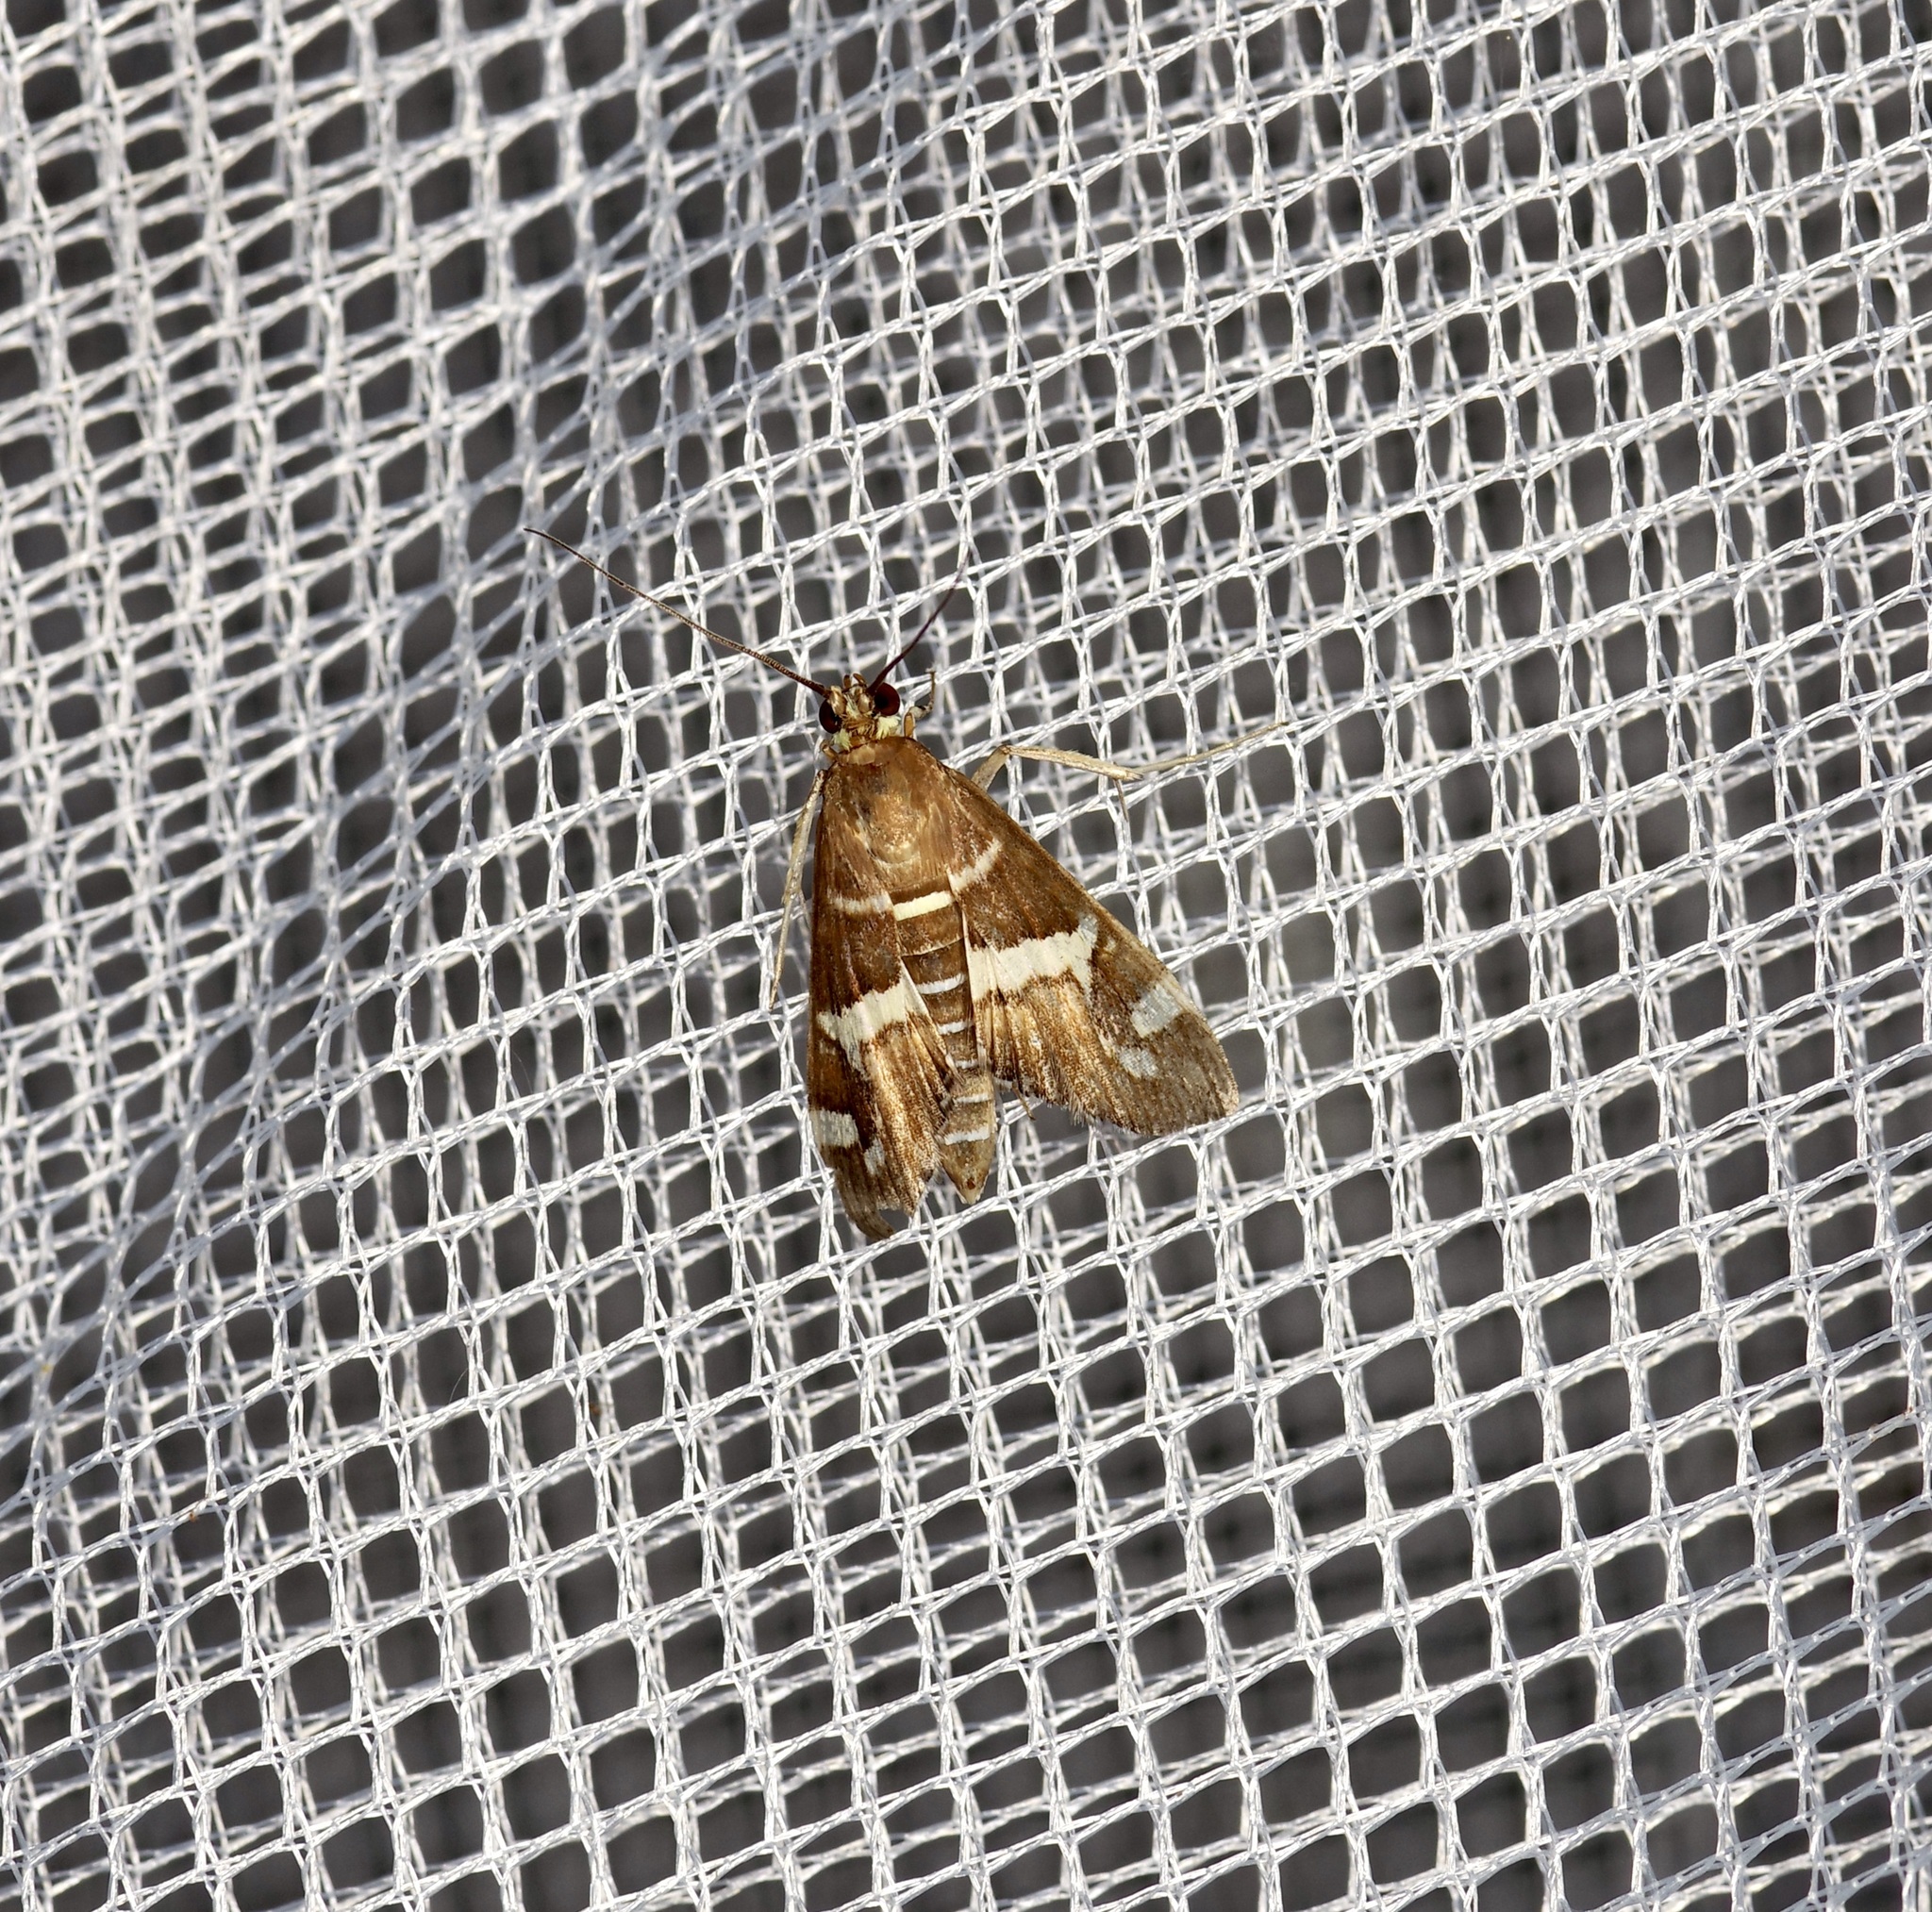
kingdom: Animalia
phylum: Arthropoda
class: Insecta
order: Lepidoptera
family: Crambidae
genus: Spoladea
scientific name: Spoladea recurvalis
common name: Beet webworm moth
